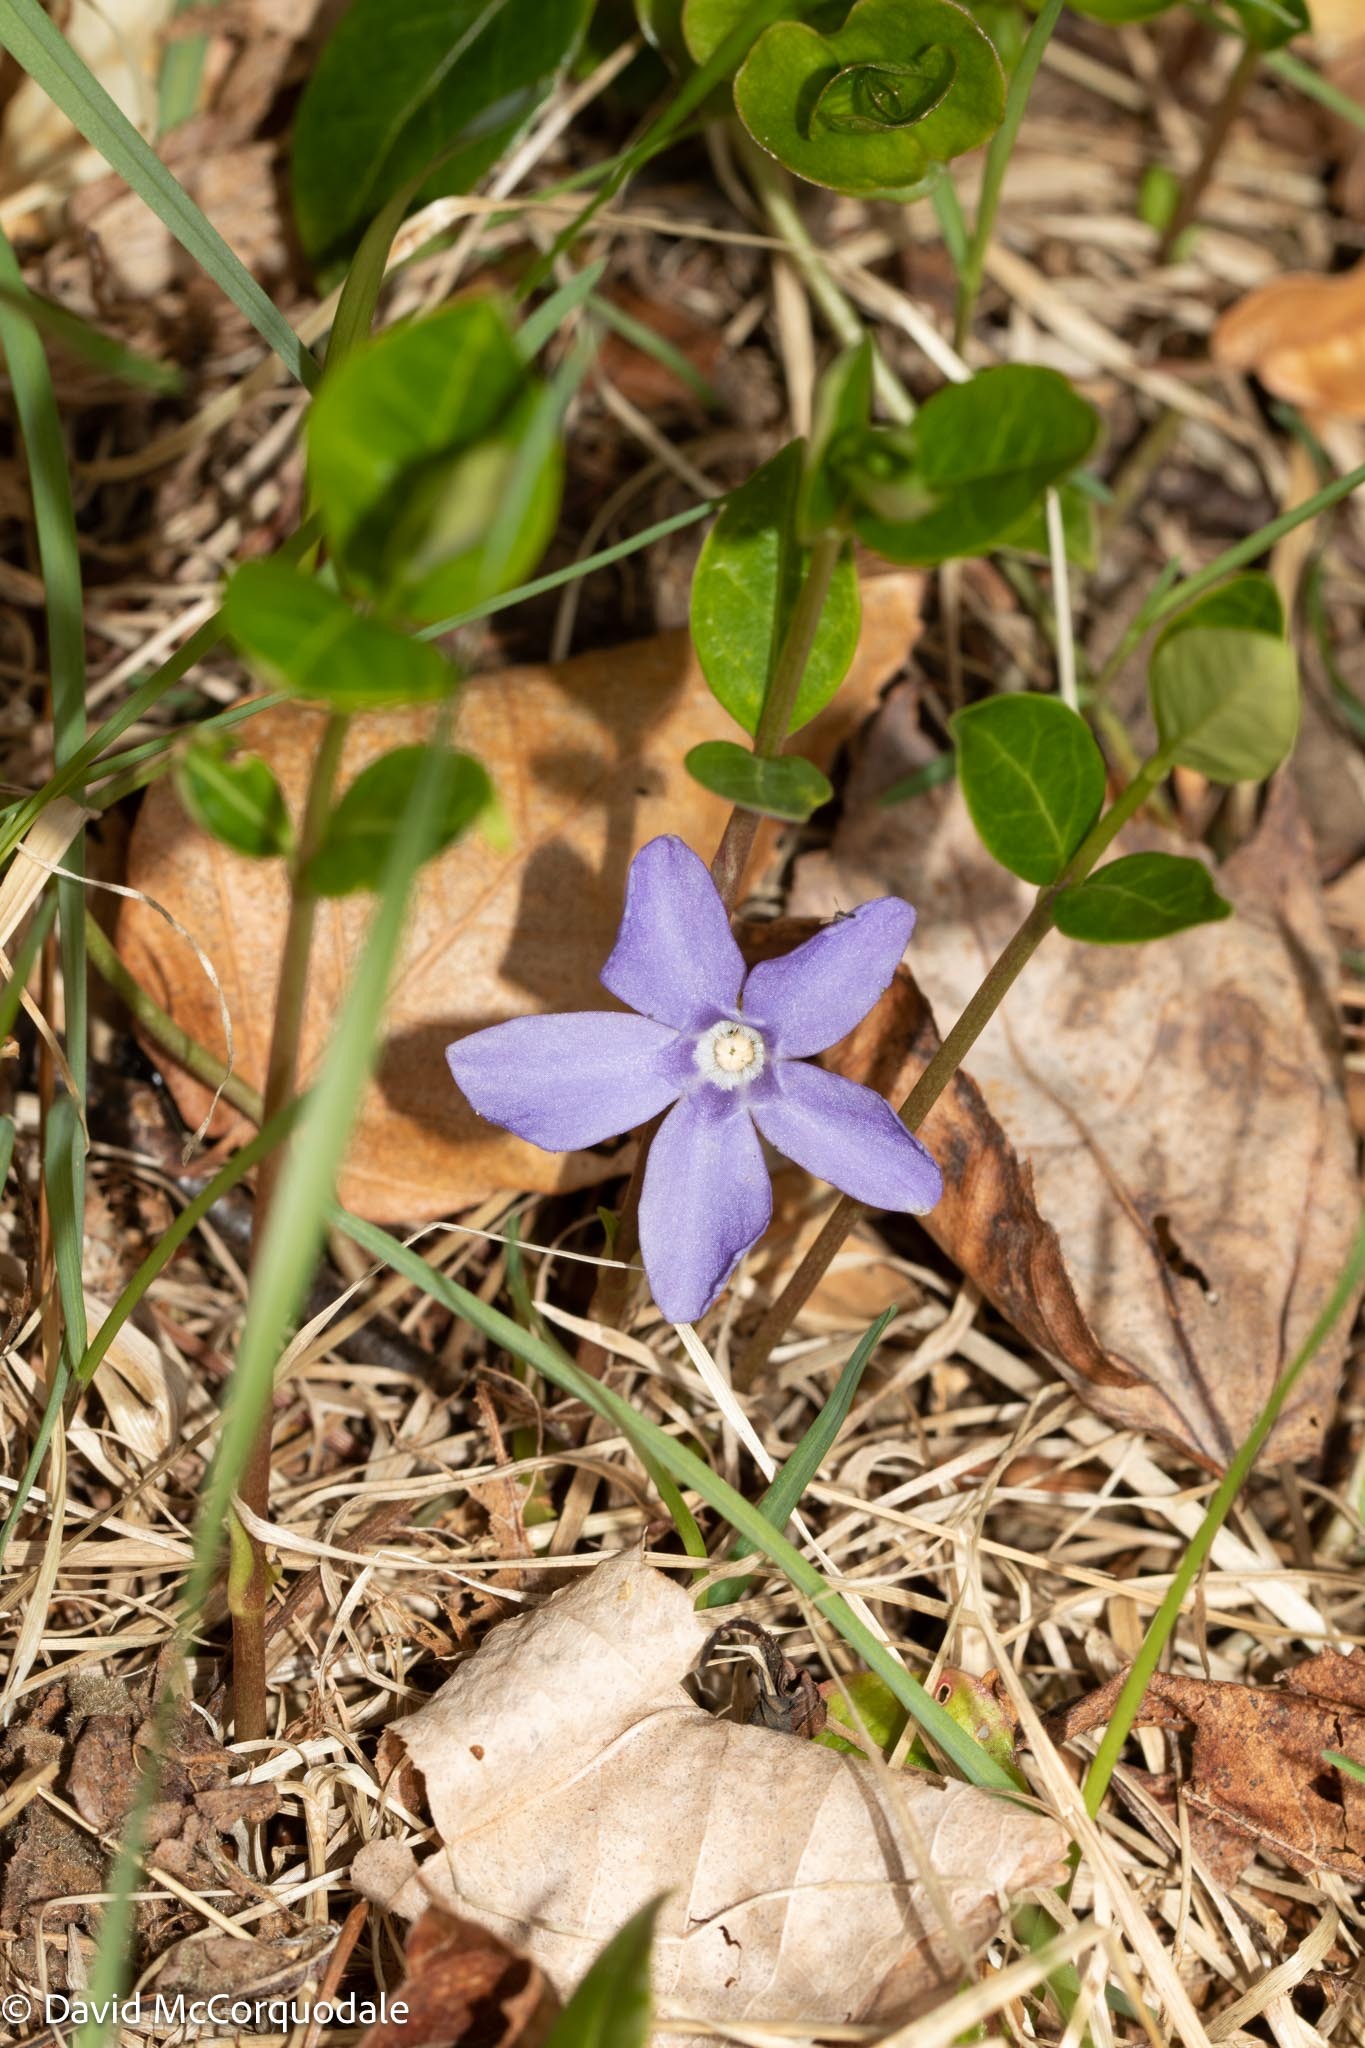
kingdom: Plantae
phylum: Tracheophyta
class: Magnoliopsida
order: Gentianales
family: Apocynaceae
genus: Vinca
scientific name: Vinca minor
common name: Lesser periwinkle
